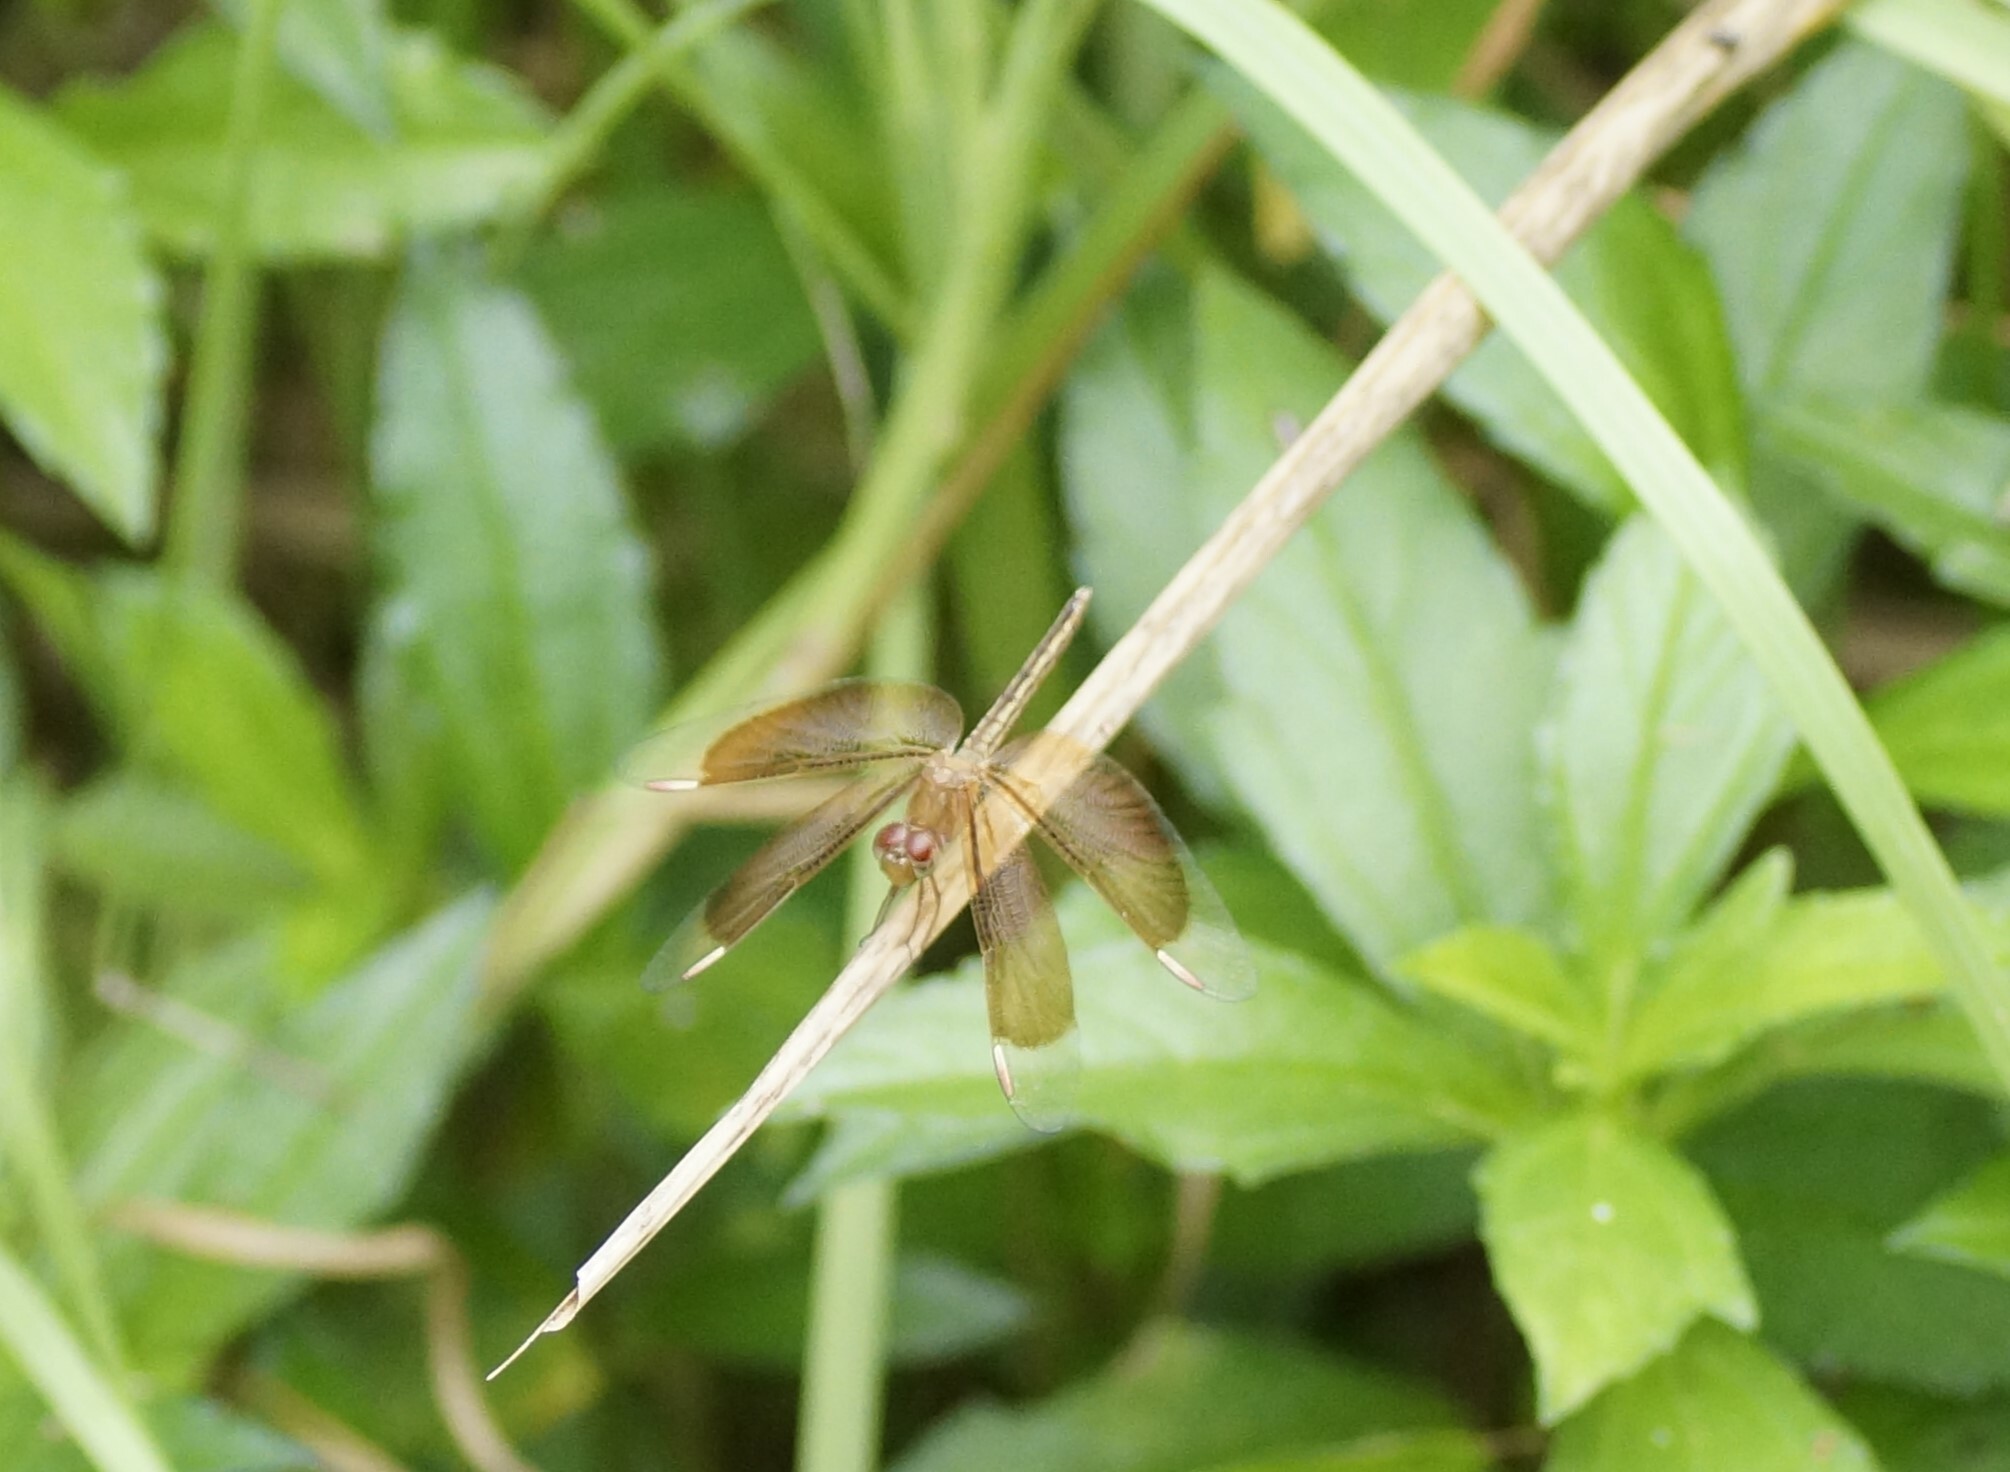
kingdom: Animalia
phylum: Arthropoda
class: Insecta
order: Odonata
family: Libellulidae
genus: Neurothemis
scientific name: Neurothemis stigmatizans
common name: Painted grasshawk
